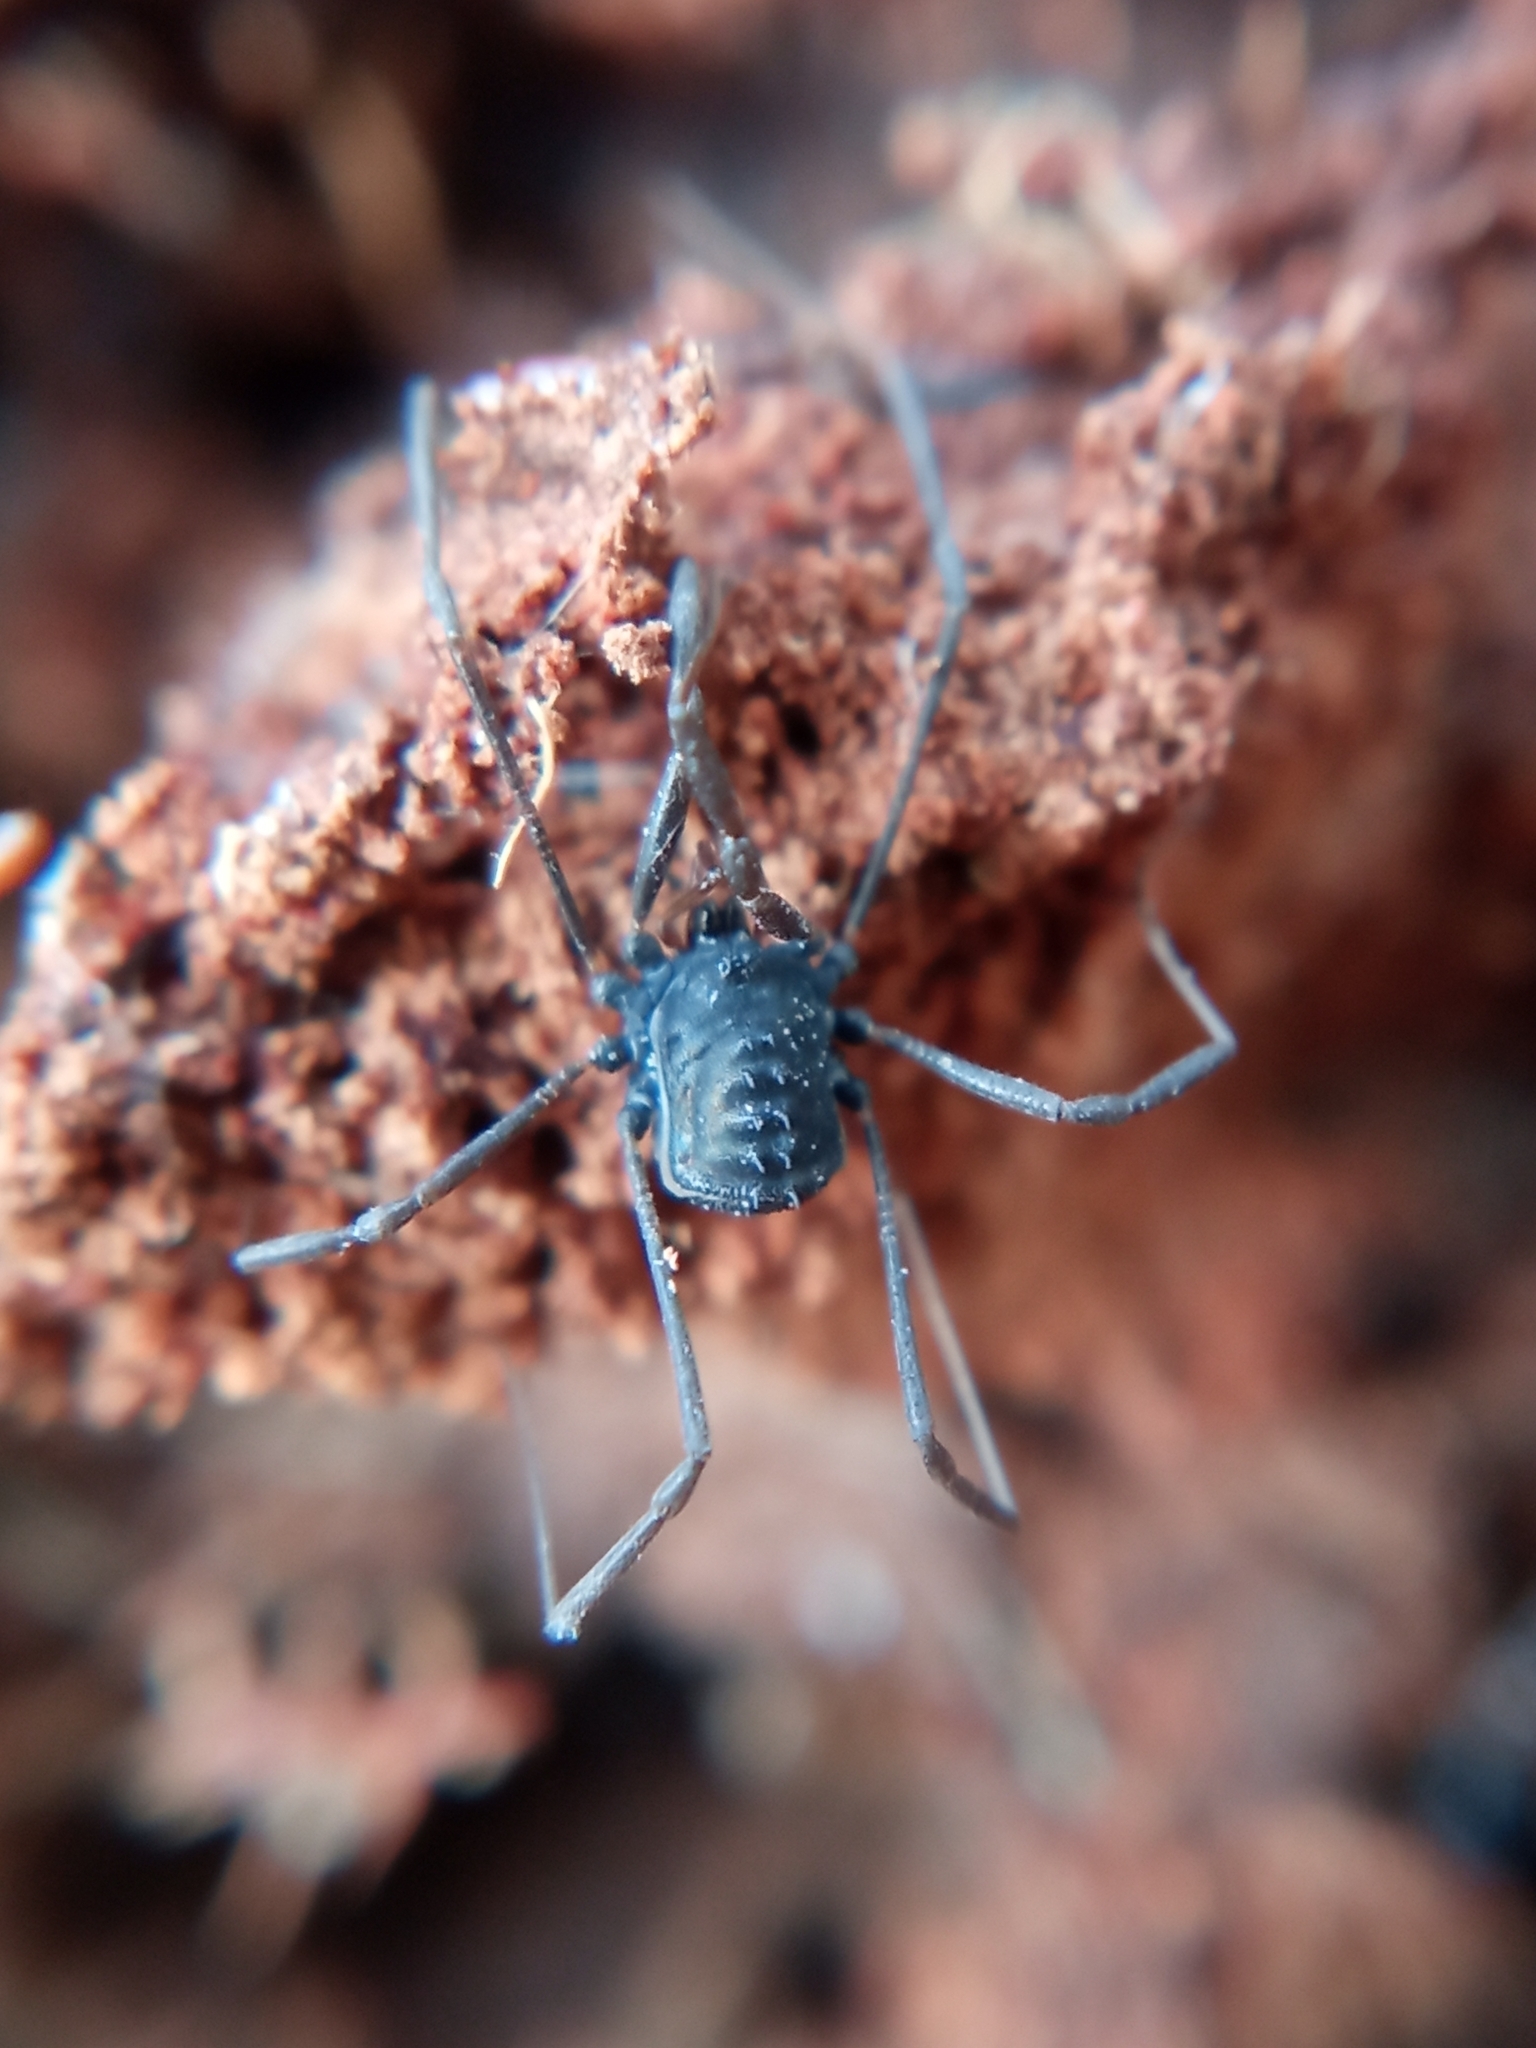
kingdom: Animalia
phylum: Arthropoda
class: Arachnida
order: Opiliones
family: Nemastomatidae
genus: Histricostoma
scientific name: Histricostoma dentipalpe
